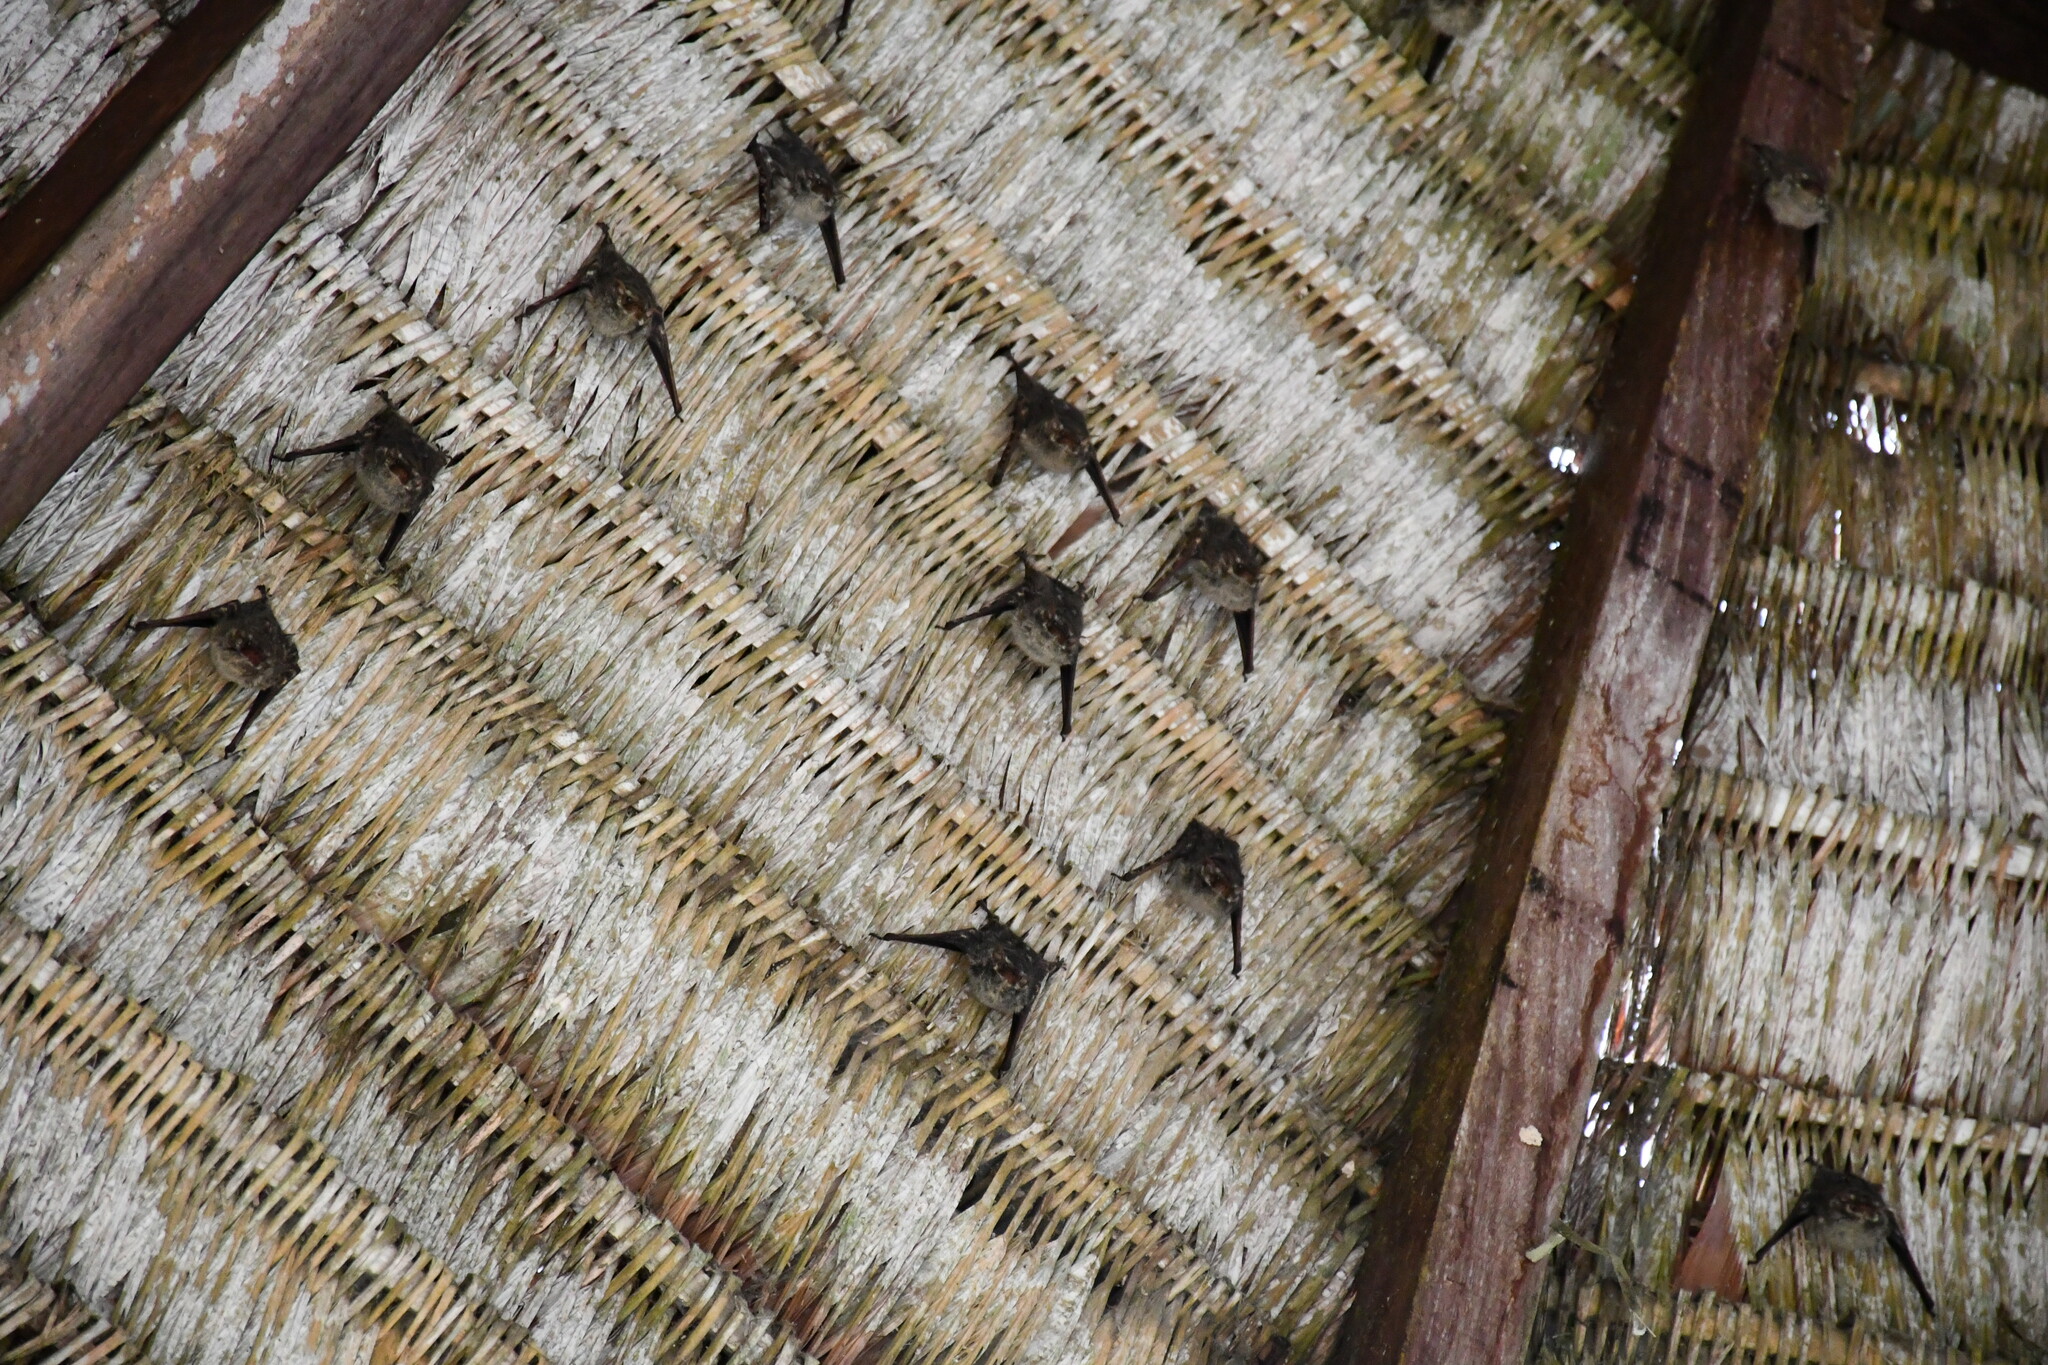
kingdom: Animalia
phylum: Chordata
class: Mammalia
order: Chiroptera
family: Emballonuridae
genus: Rhynchonycteris
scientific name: Rhynchonycteris naso
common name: Proboscis bat
